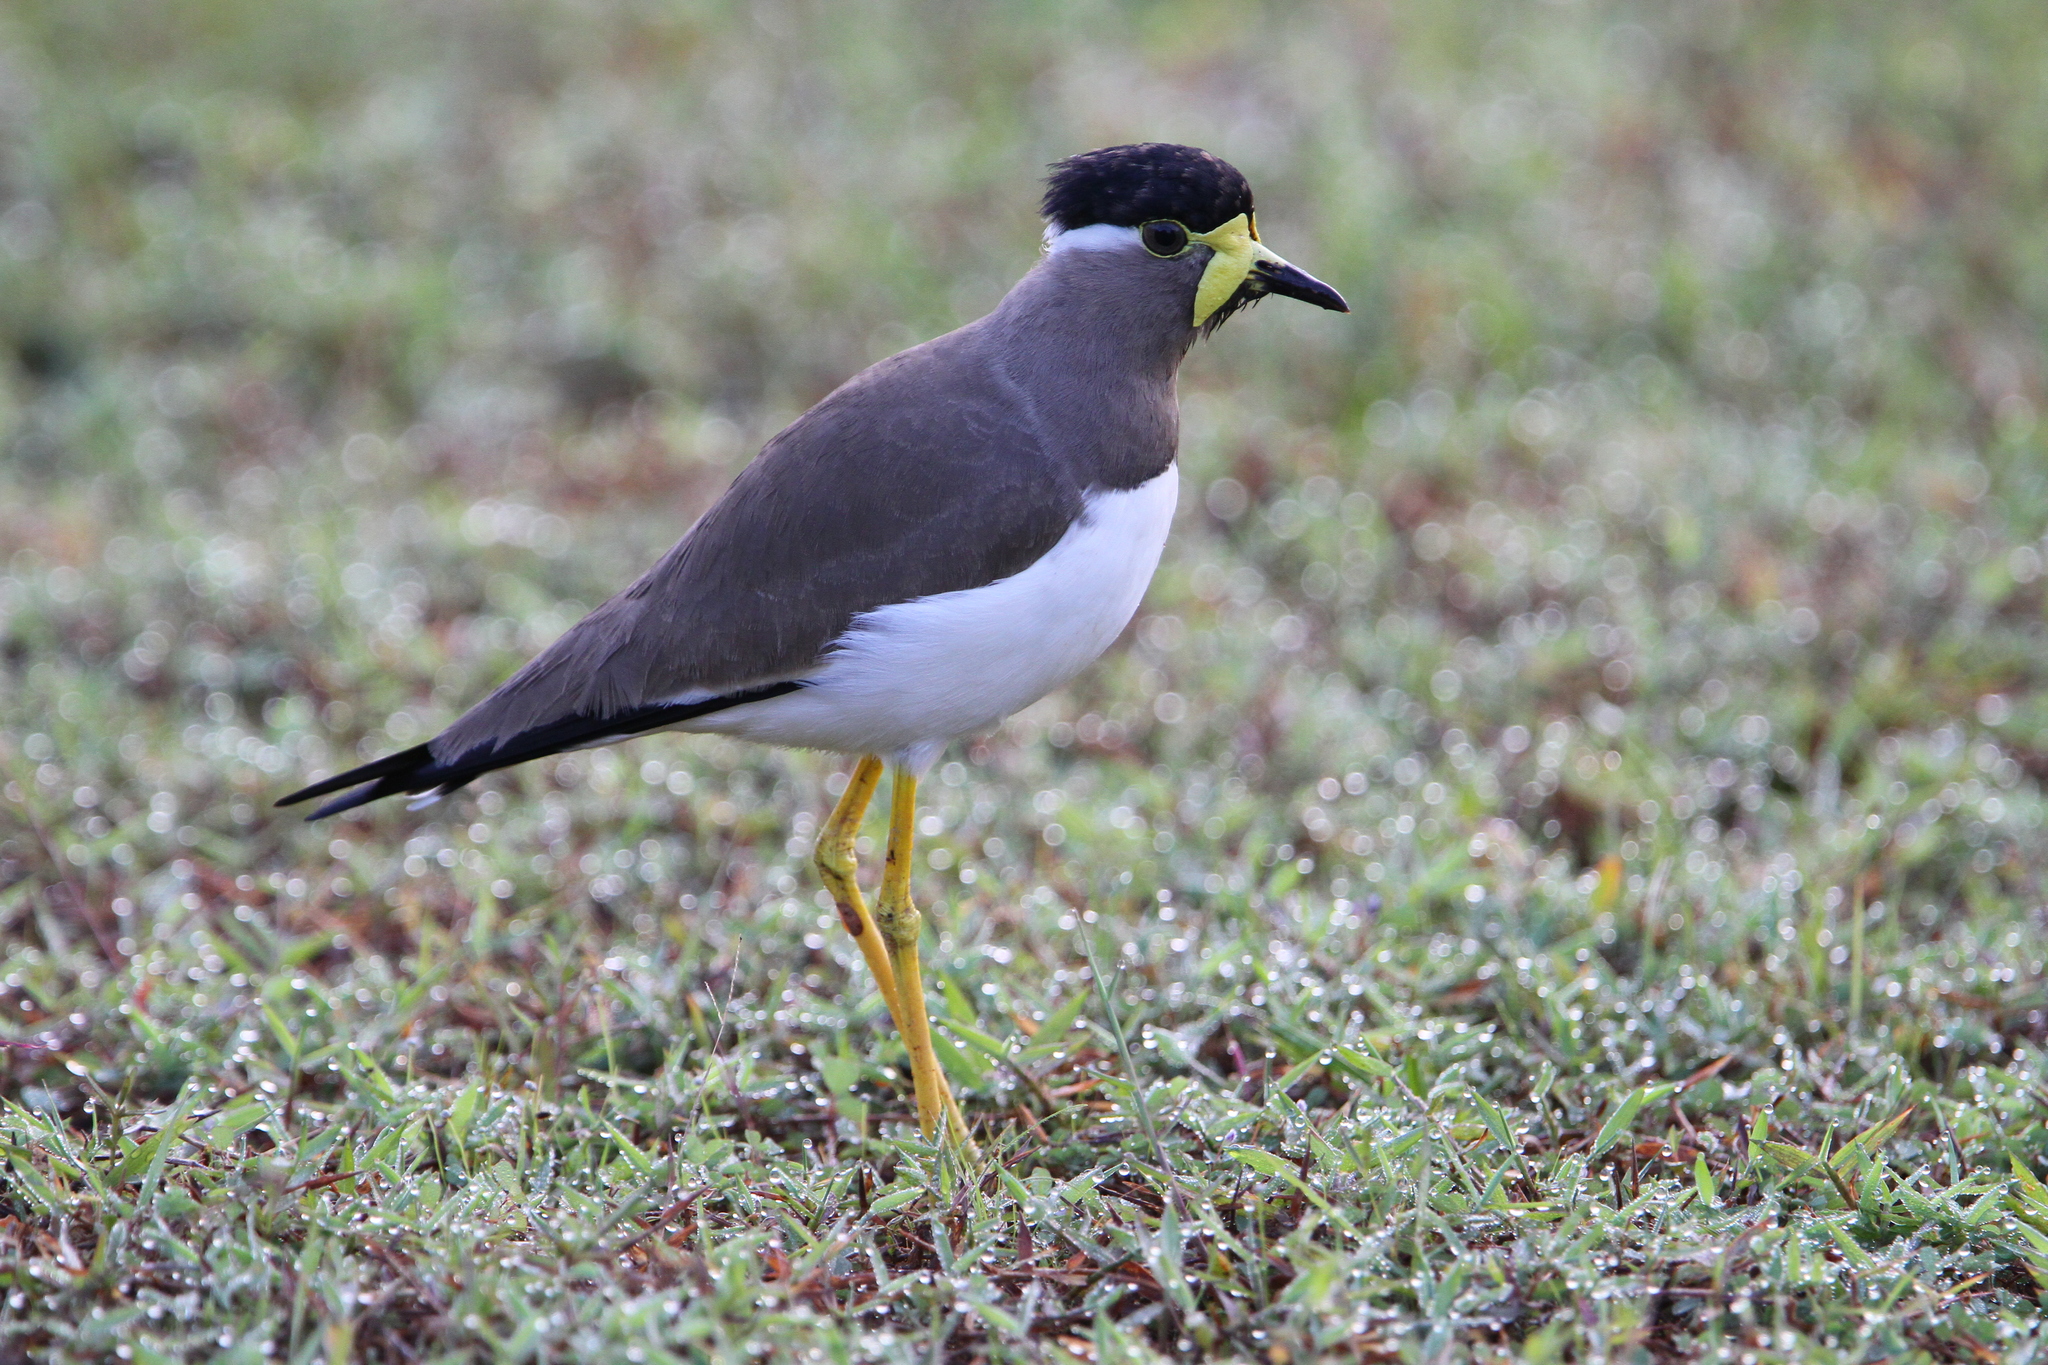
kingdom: Animalia
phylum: Chordata
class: Aves
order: Charadriiformes
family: Charadriidae
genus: Vanellus
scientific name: Vanellus malabaricus
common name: Yellow-wattled lapwing
